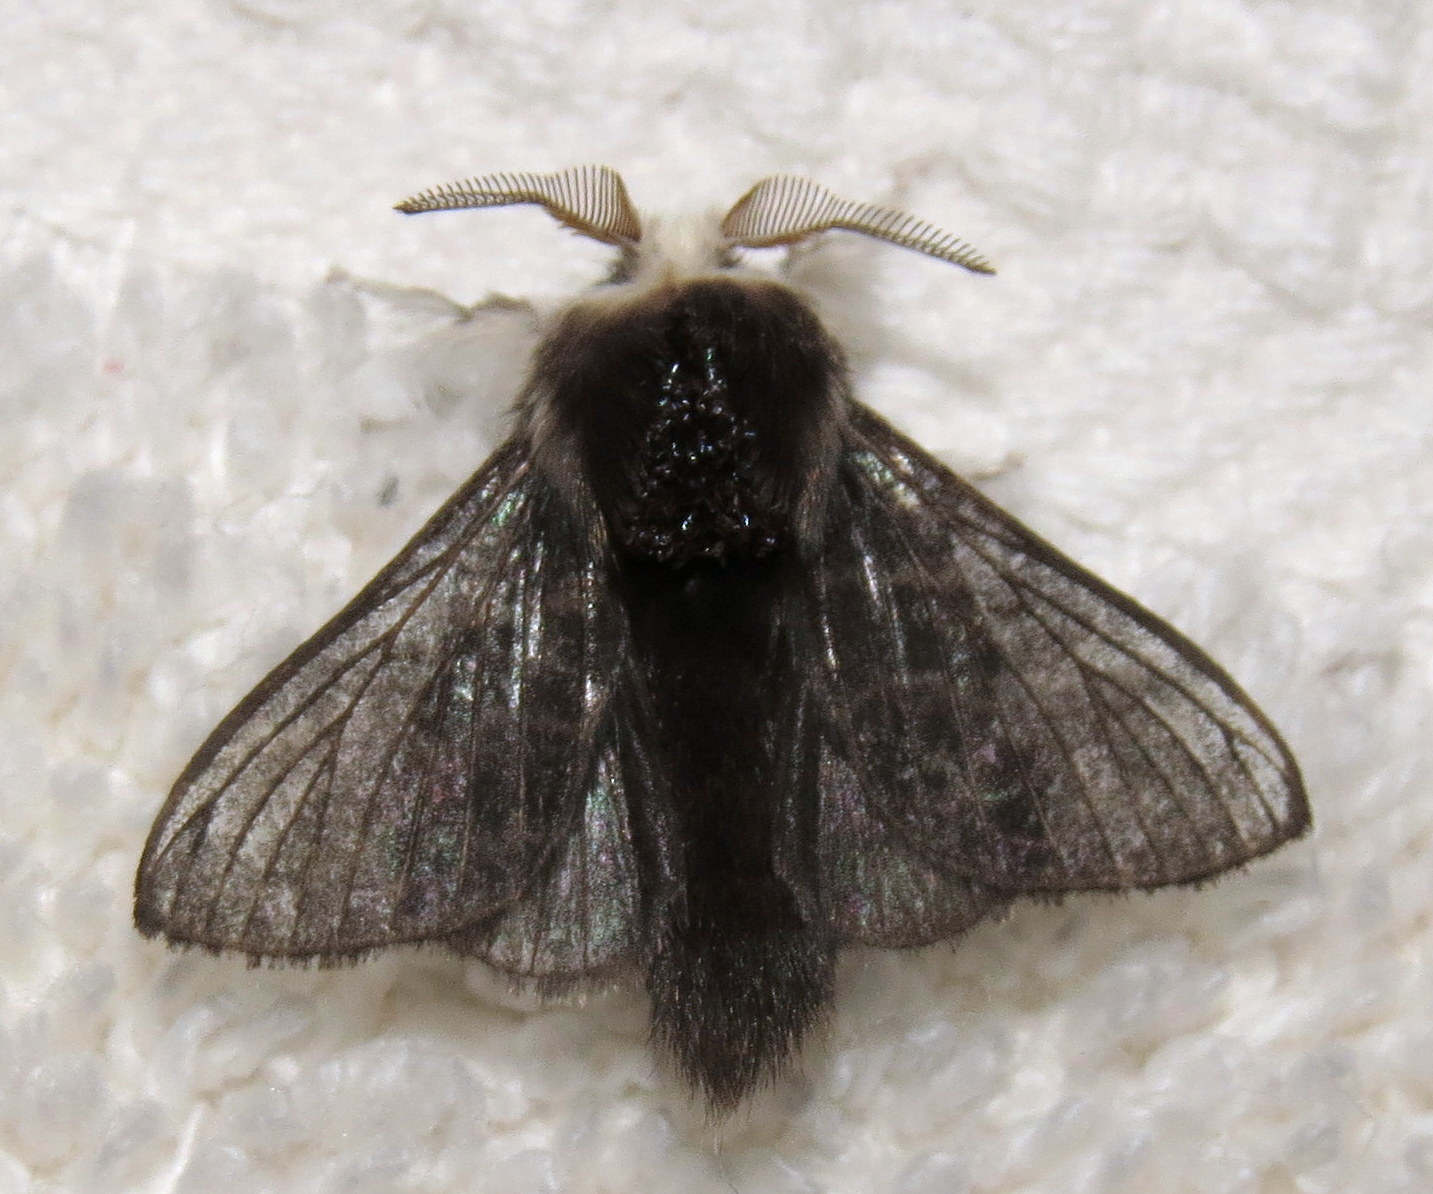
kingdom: Animalia
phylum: Arthropoda
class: Insecta
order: Lepidoptera
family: Lasiocampidae
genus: Tolype
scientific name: Tolype laricis
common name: Larch tolype moth
